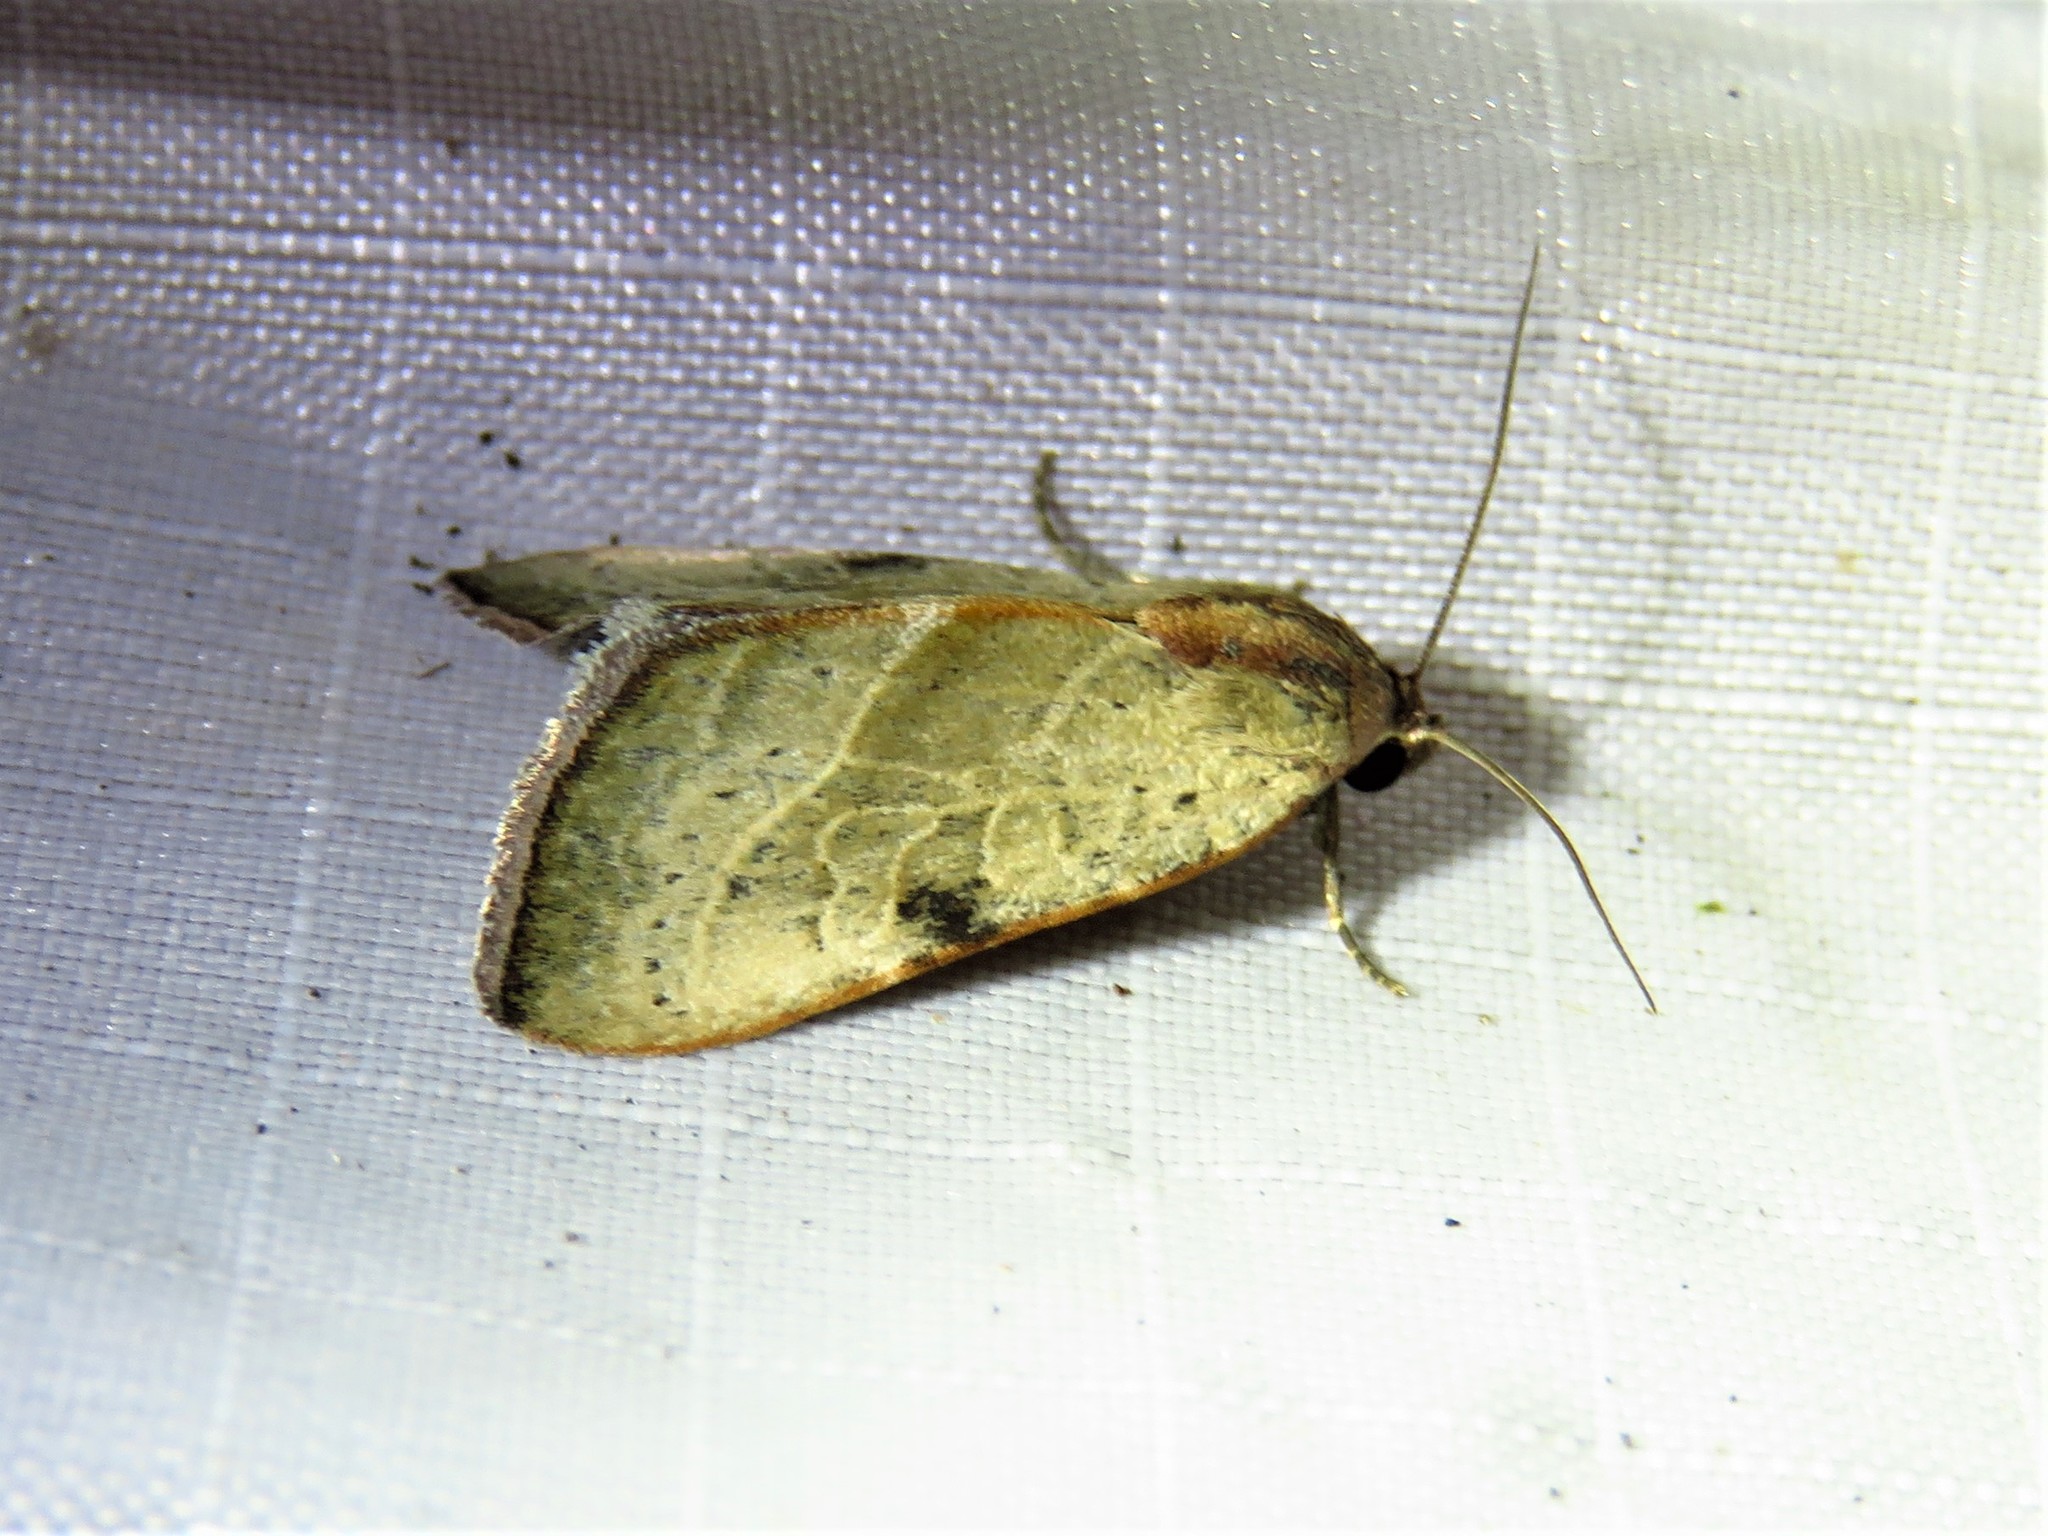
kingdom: Animalia
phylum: Arthropoda
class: Insecta
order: Lepidoptera
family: Noctuidae
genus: Galgula
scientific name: Galgula partita
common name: Wedgeling
